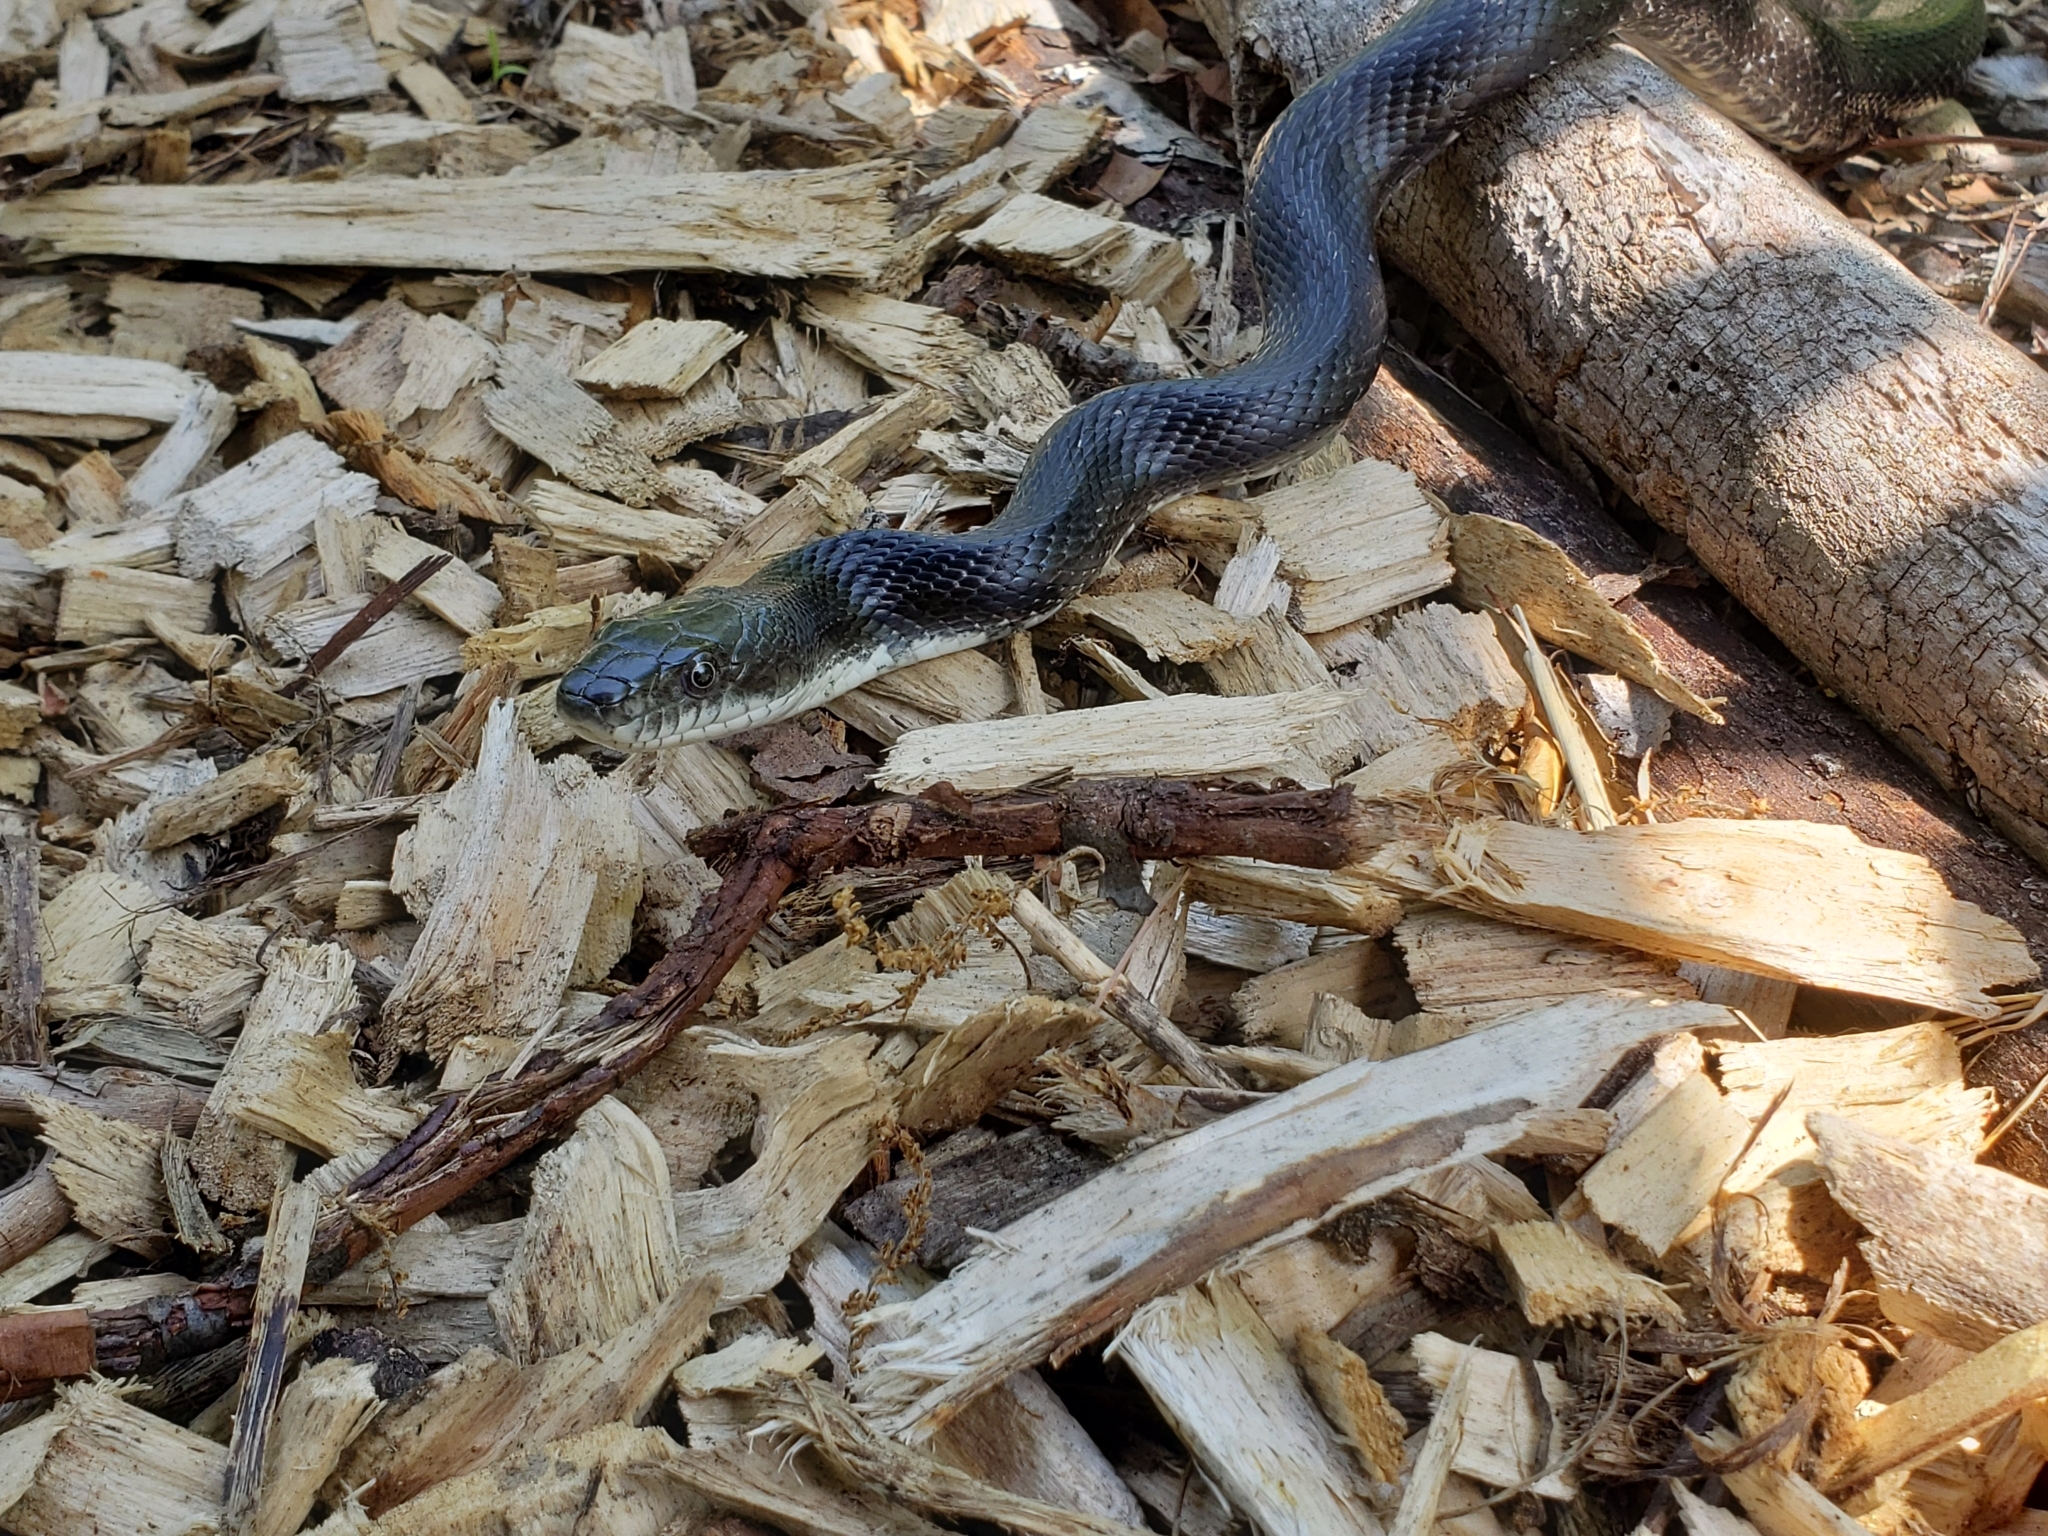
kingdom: Animalia
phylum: Chordata
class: Squamata
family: Colubridae
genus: Pantherophis
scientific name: Pantherophis alleghaniensis
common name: Eastern rat snake
